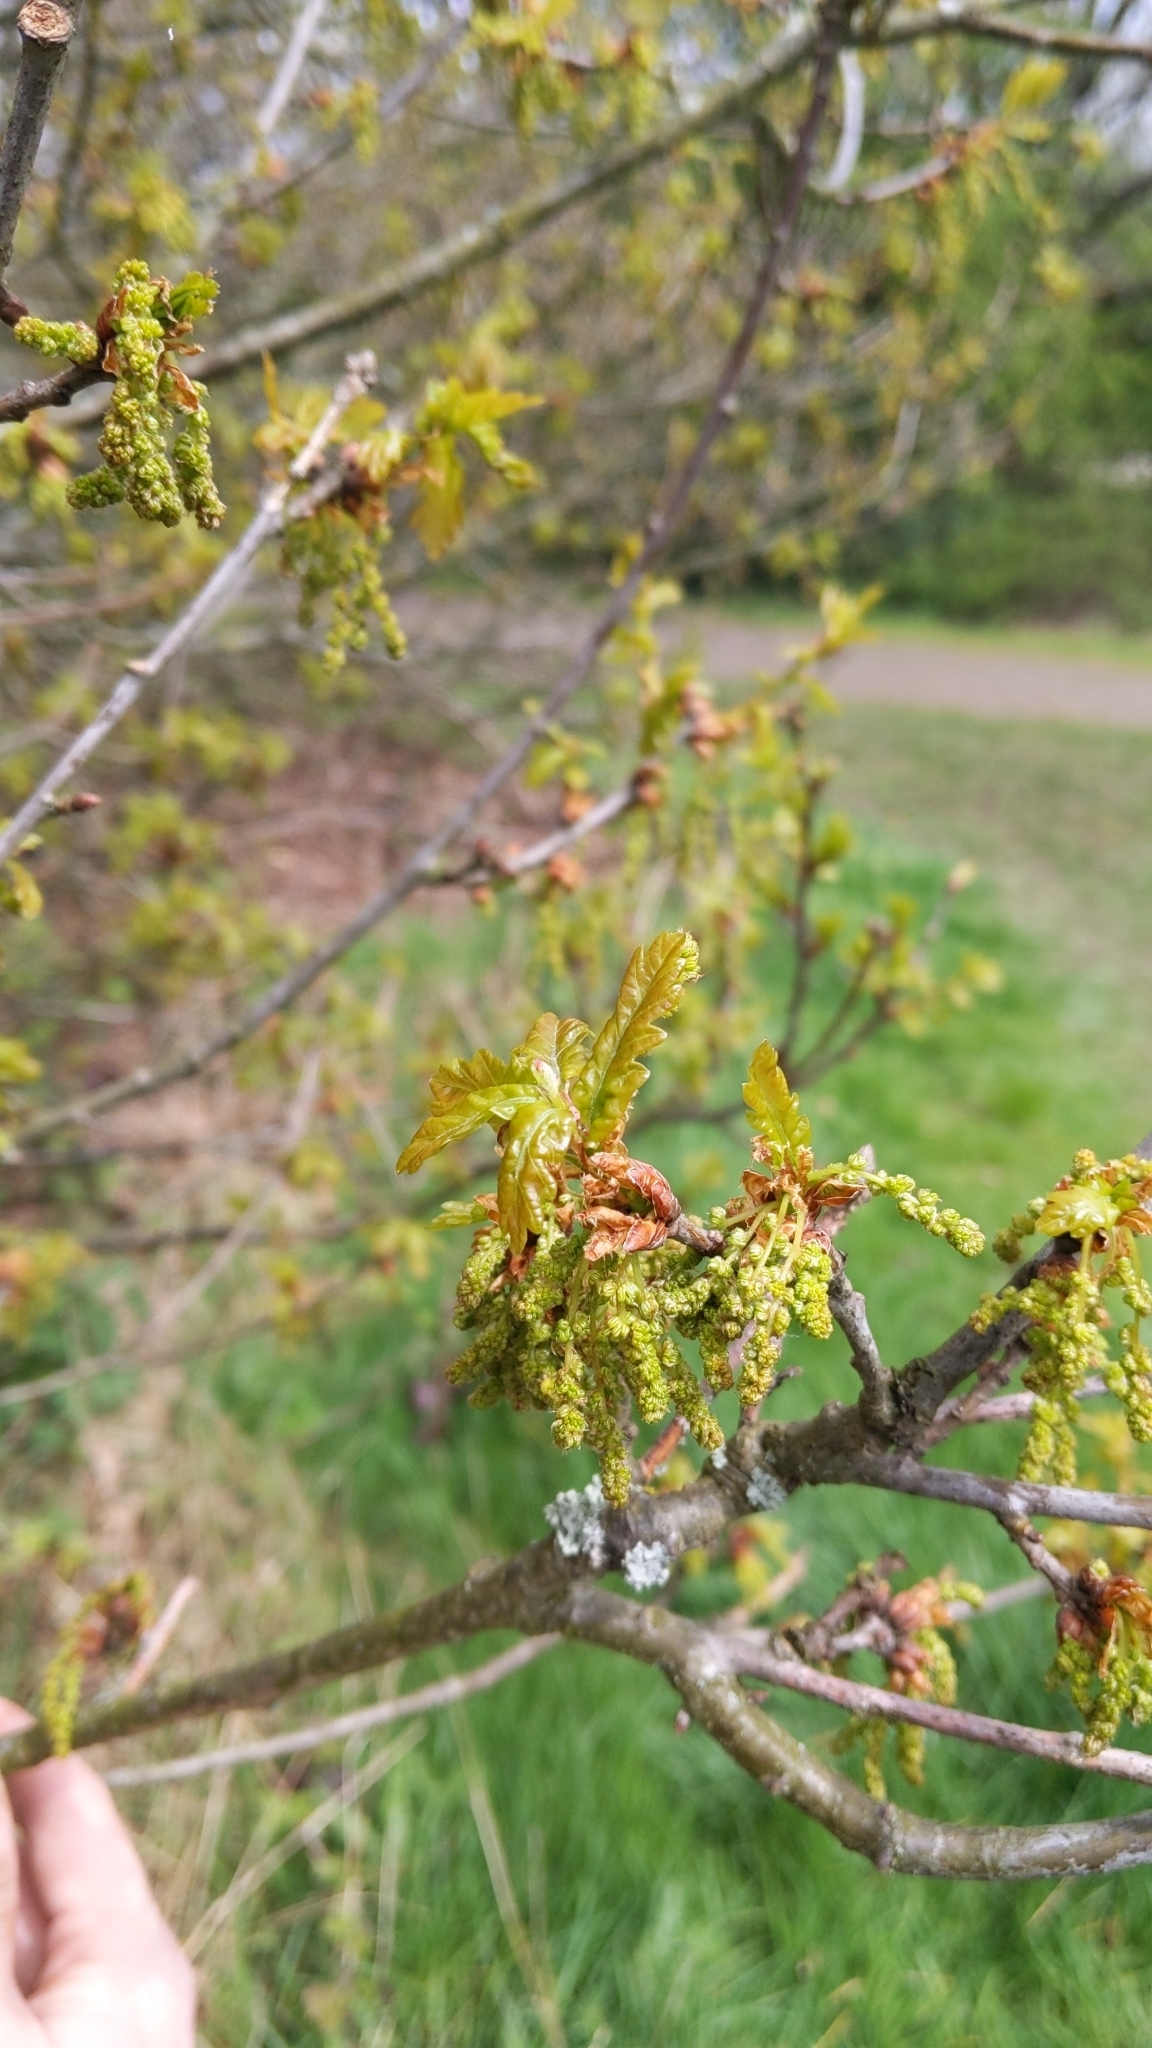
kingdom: Plantae
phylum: Tracheophyta
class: Magnoliopsida
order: Fagales
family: Fagaceae
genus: Quercus
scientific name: Quercus robur
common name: Pedunculate oak
